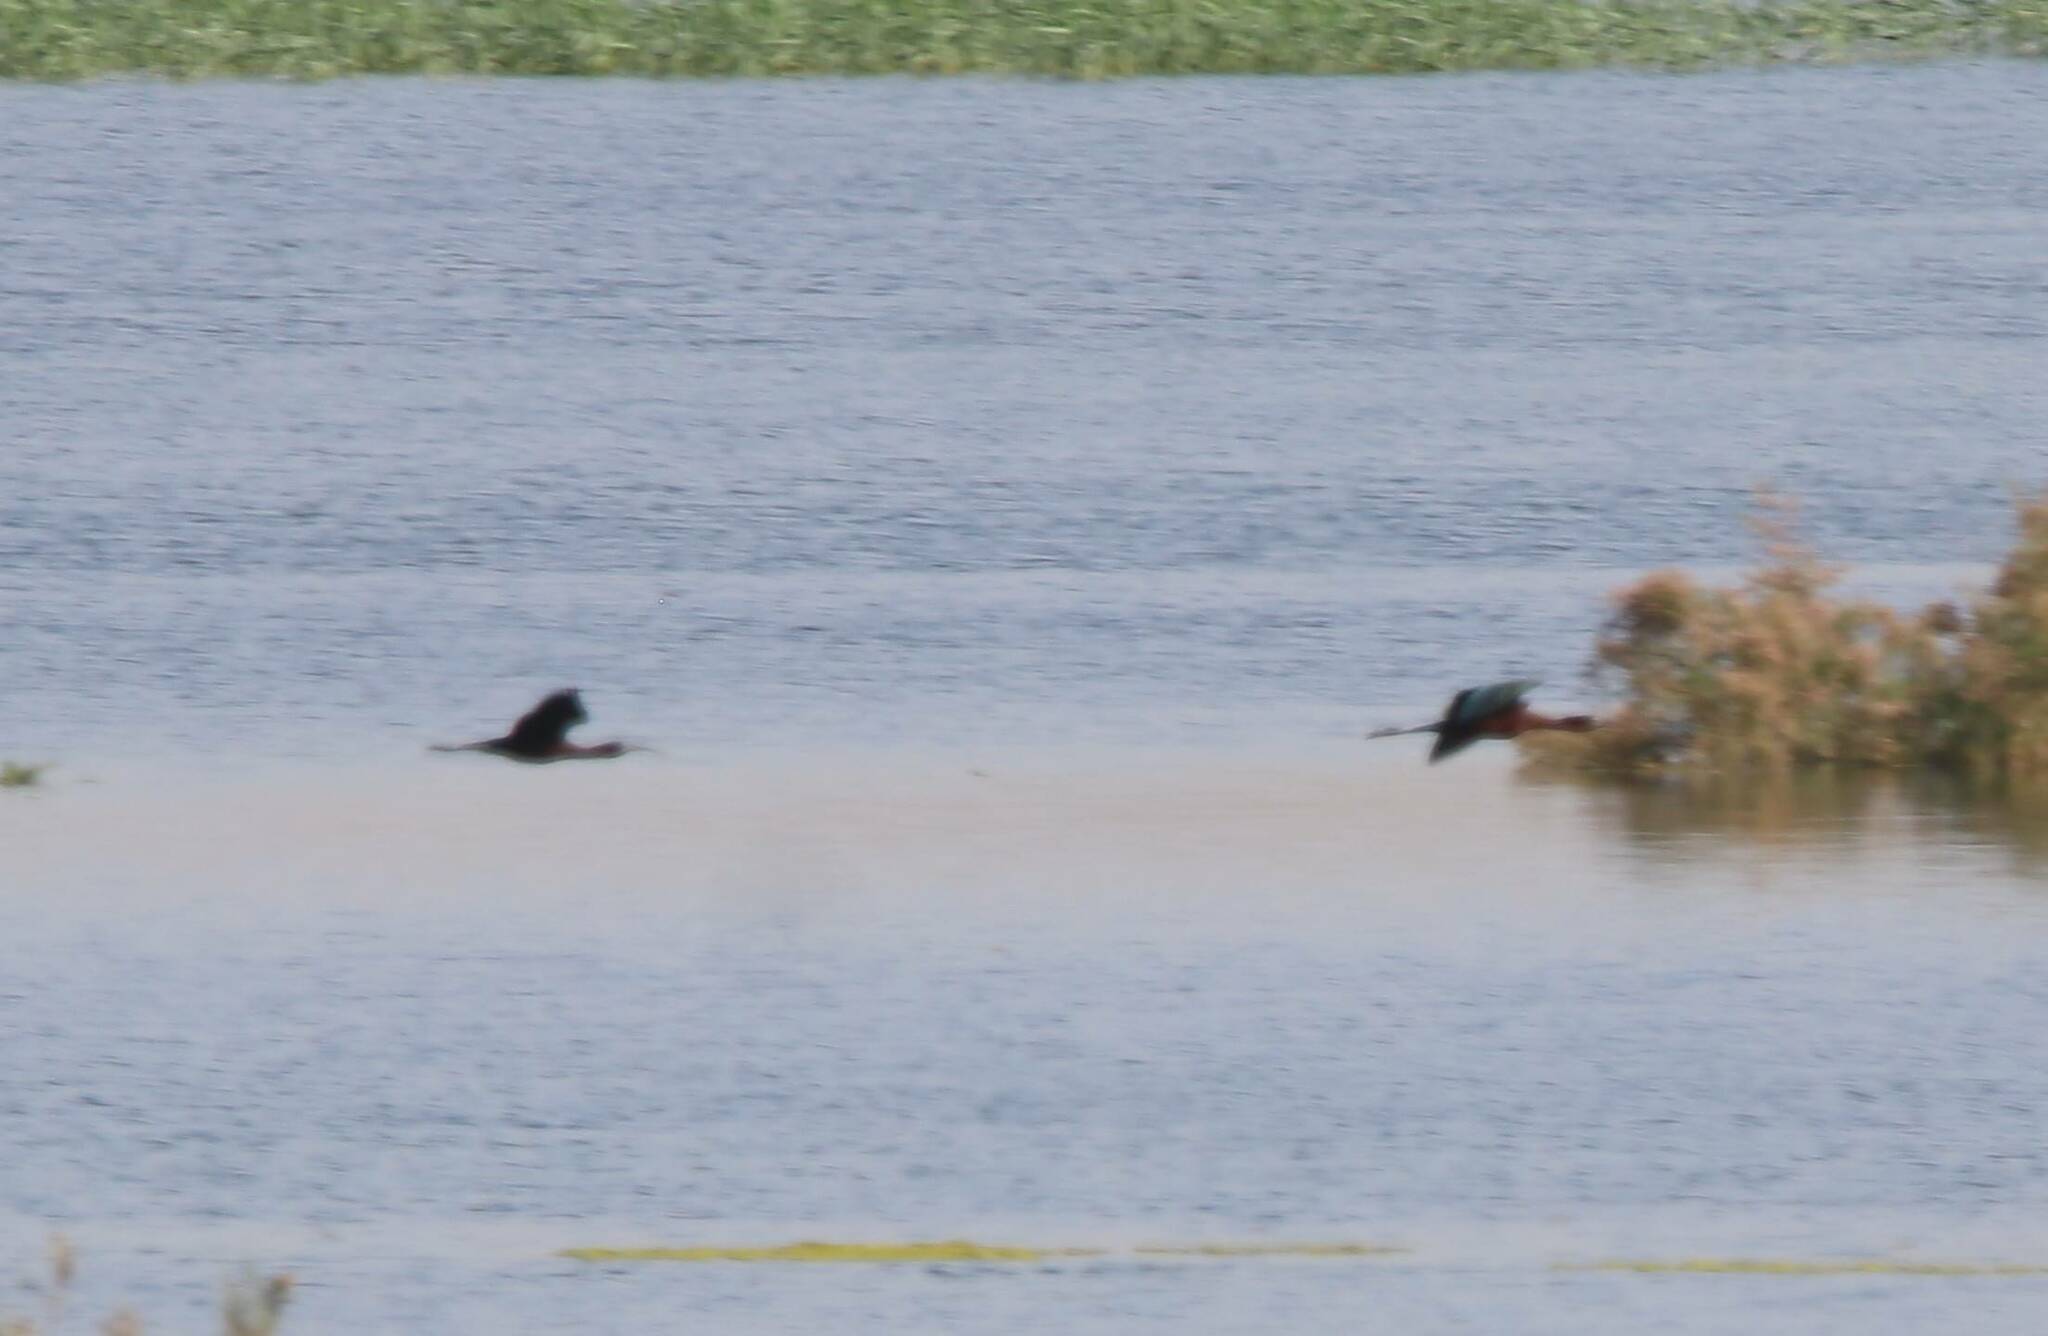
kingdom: Animalia
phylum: Chordata
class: Aves
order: Pelecaniformes
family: Threskiornithidae
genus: Plegadis
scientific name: Plegadis falcinellus
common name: Glossy ibis
